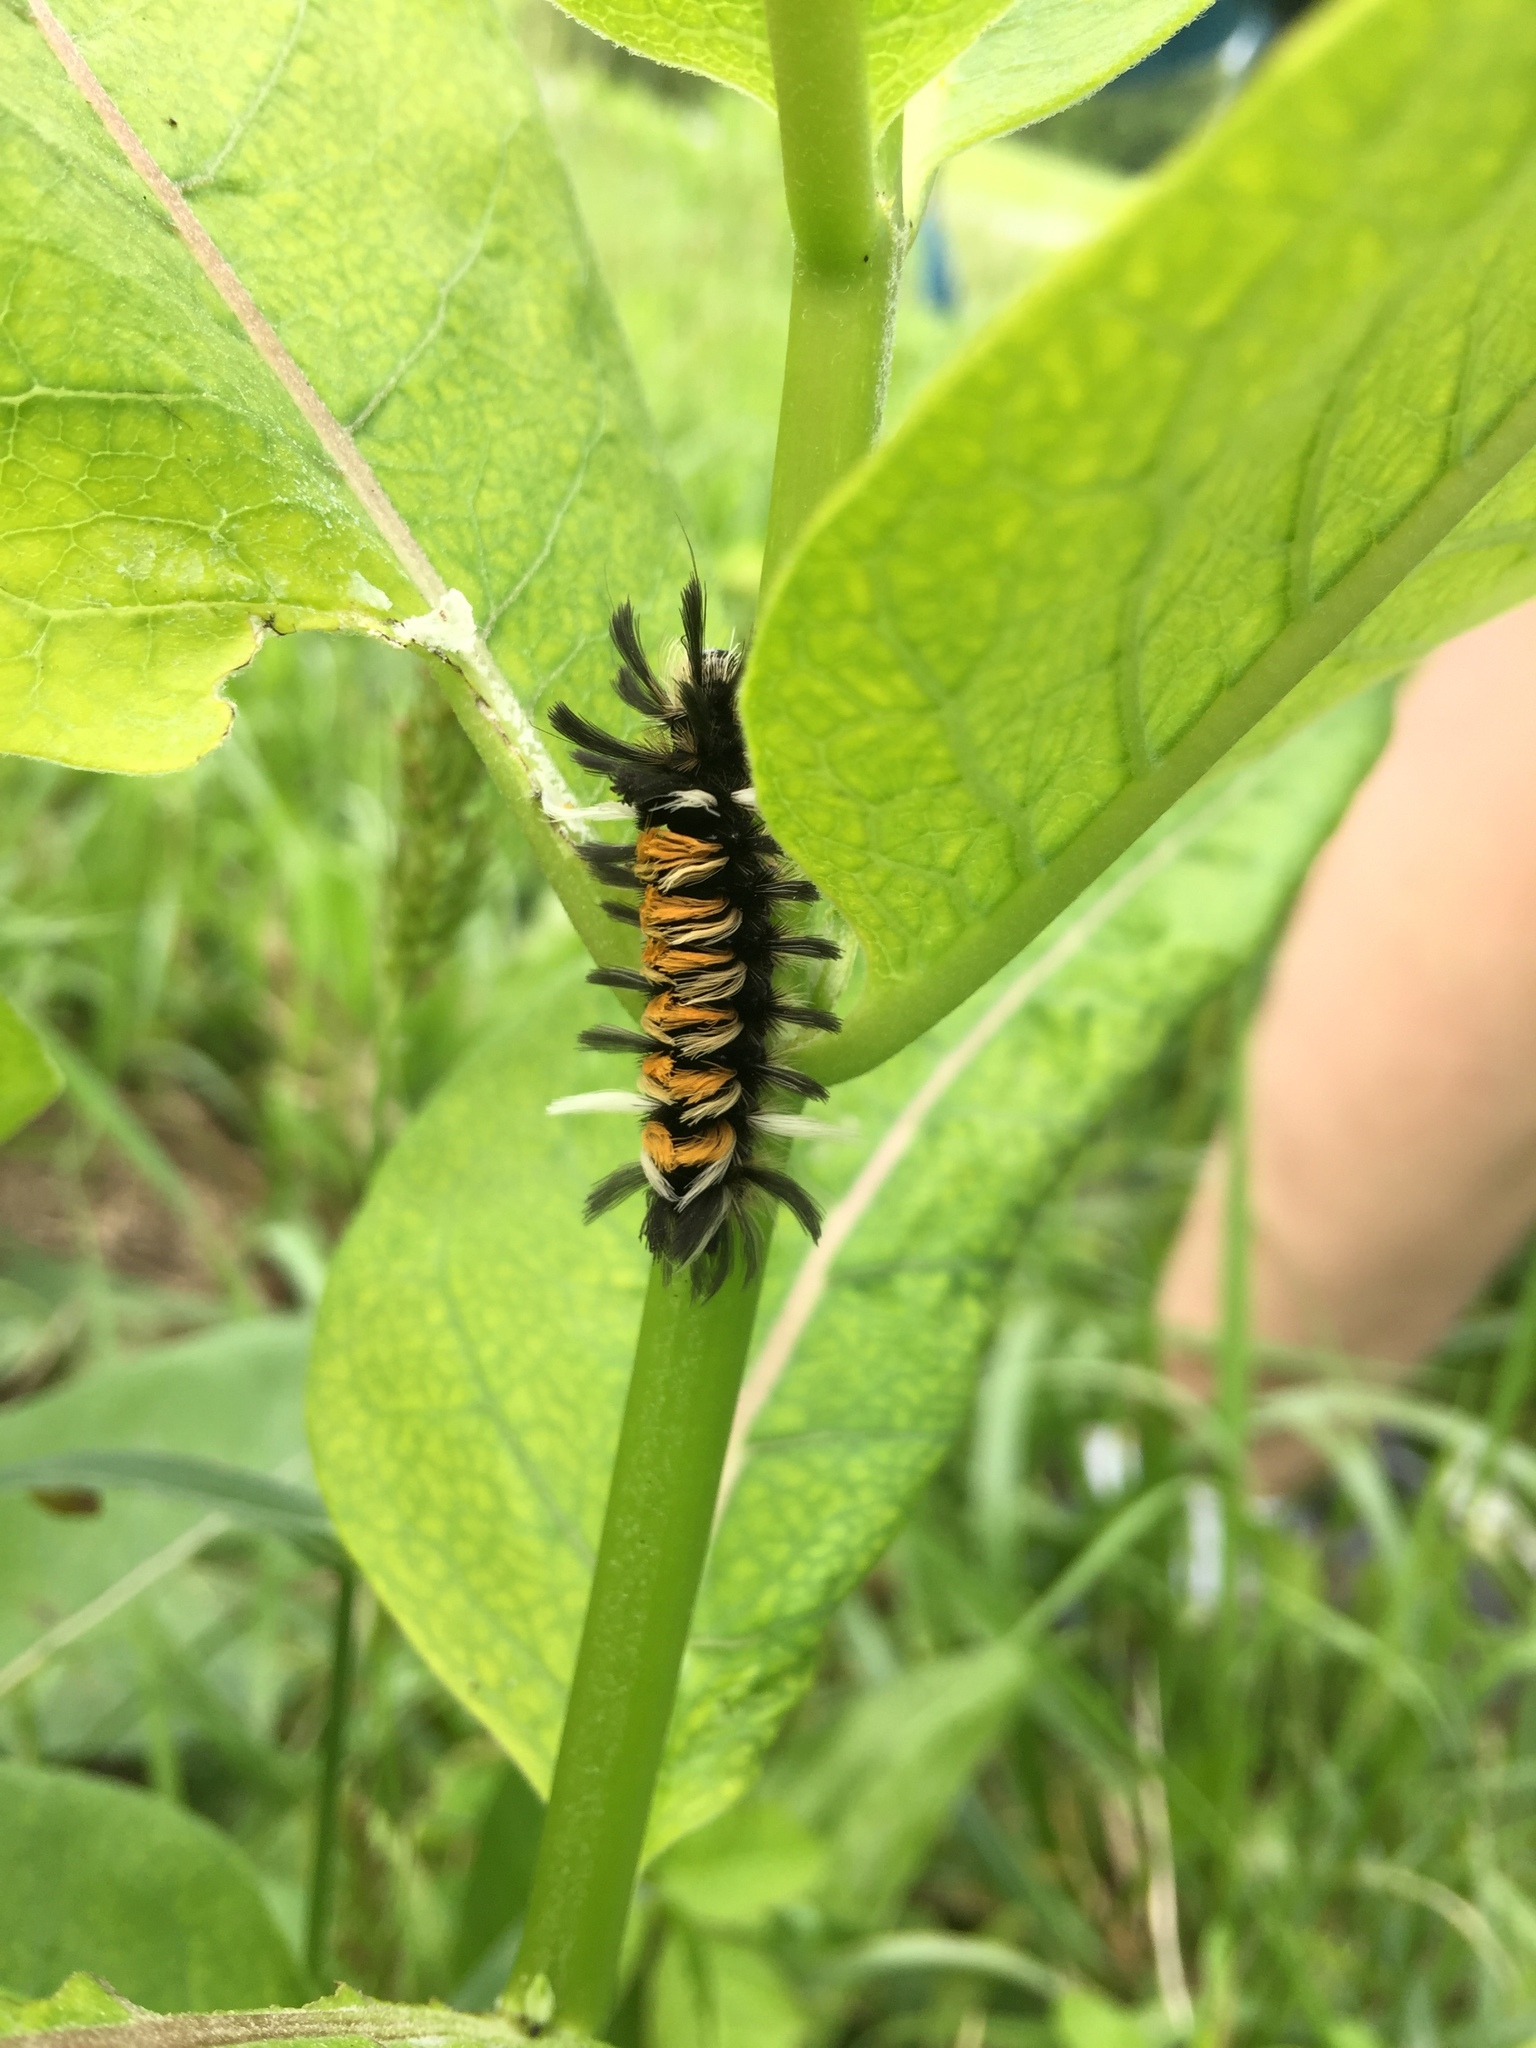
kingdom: Animalia
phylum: Arthropoda
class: Insecta
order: Lepidoptera
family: Erebidae
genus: Euchaetes
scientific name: Euchaetes egle
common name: Milkweed tussock moth
